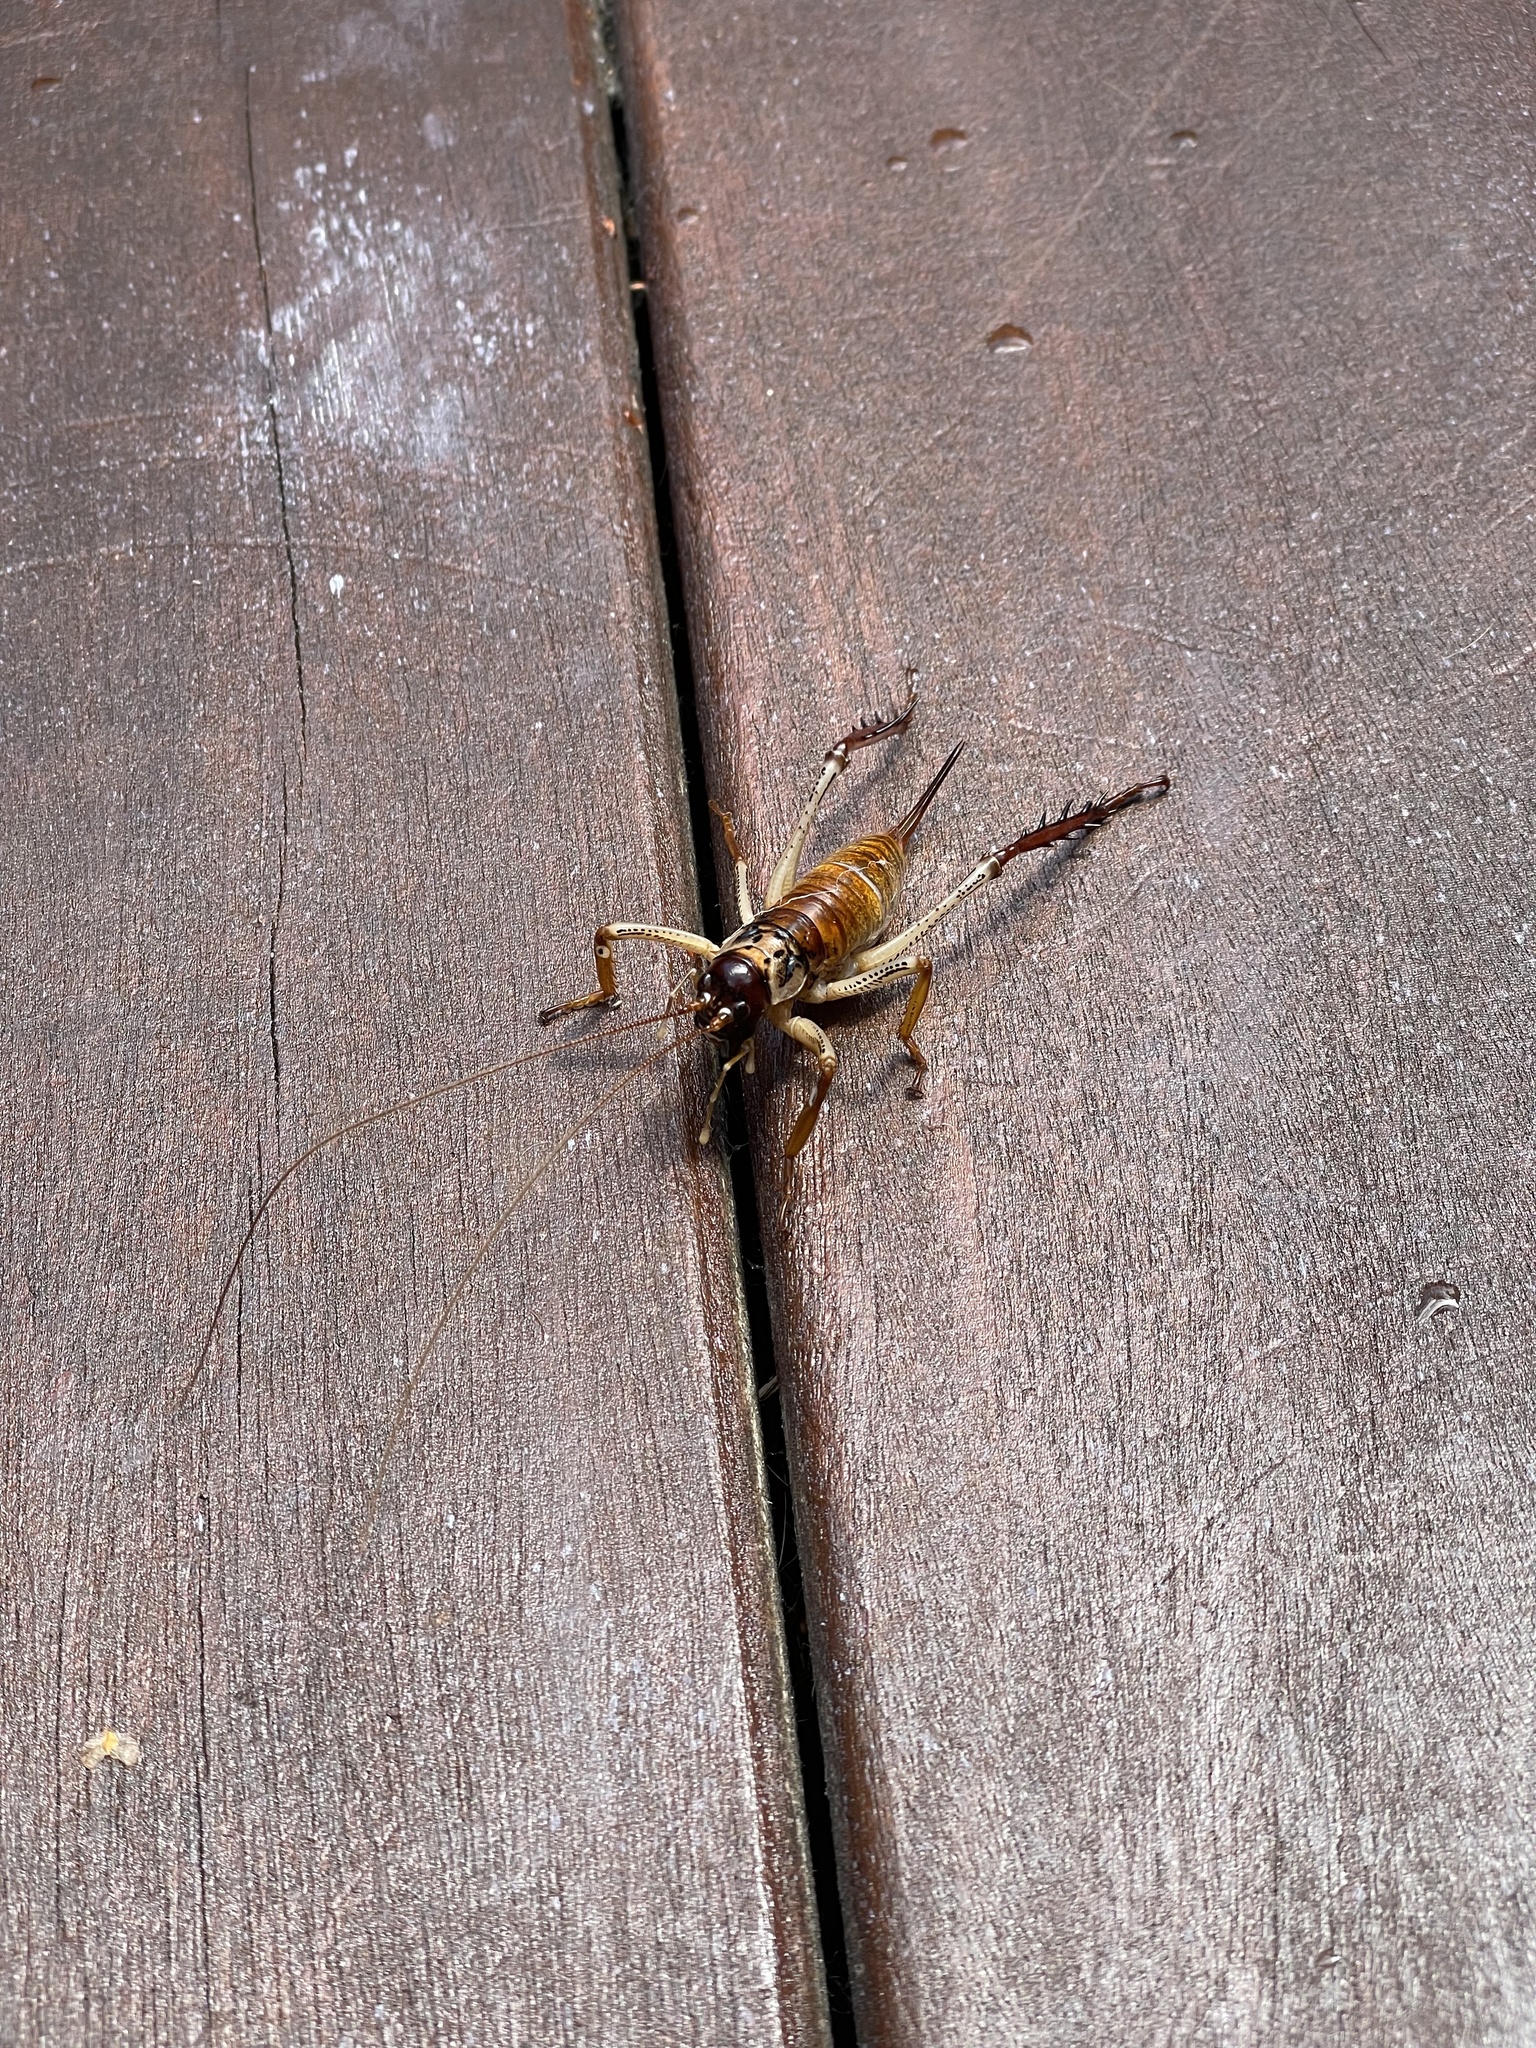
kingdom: Animalia
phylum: Arthropoda
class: Insecta
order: Orthoptera
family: Anostostomatidae
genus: Hemideina
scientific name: Hemideina thoracica
